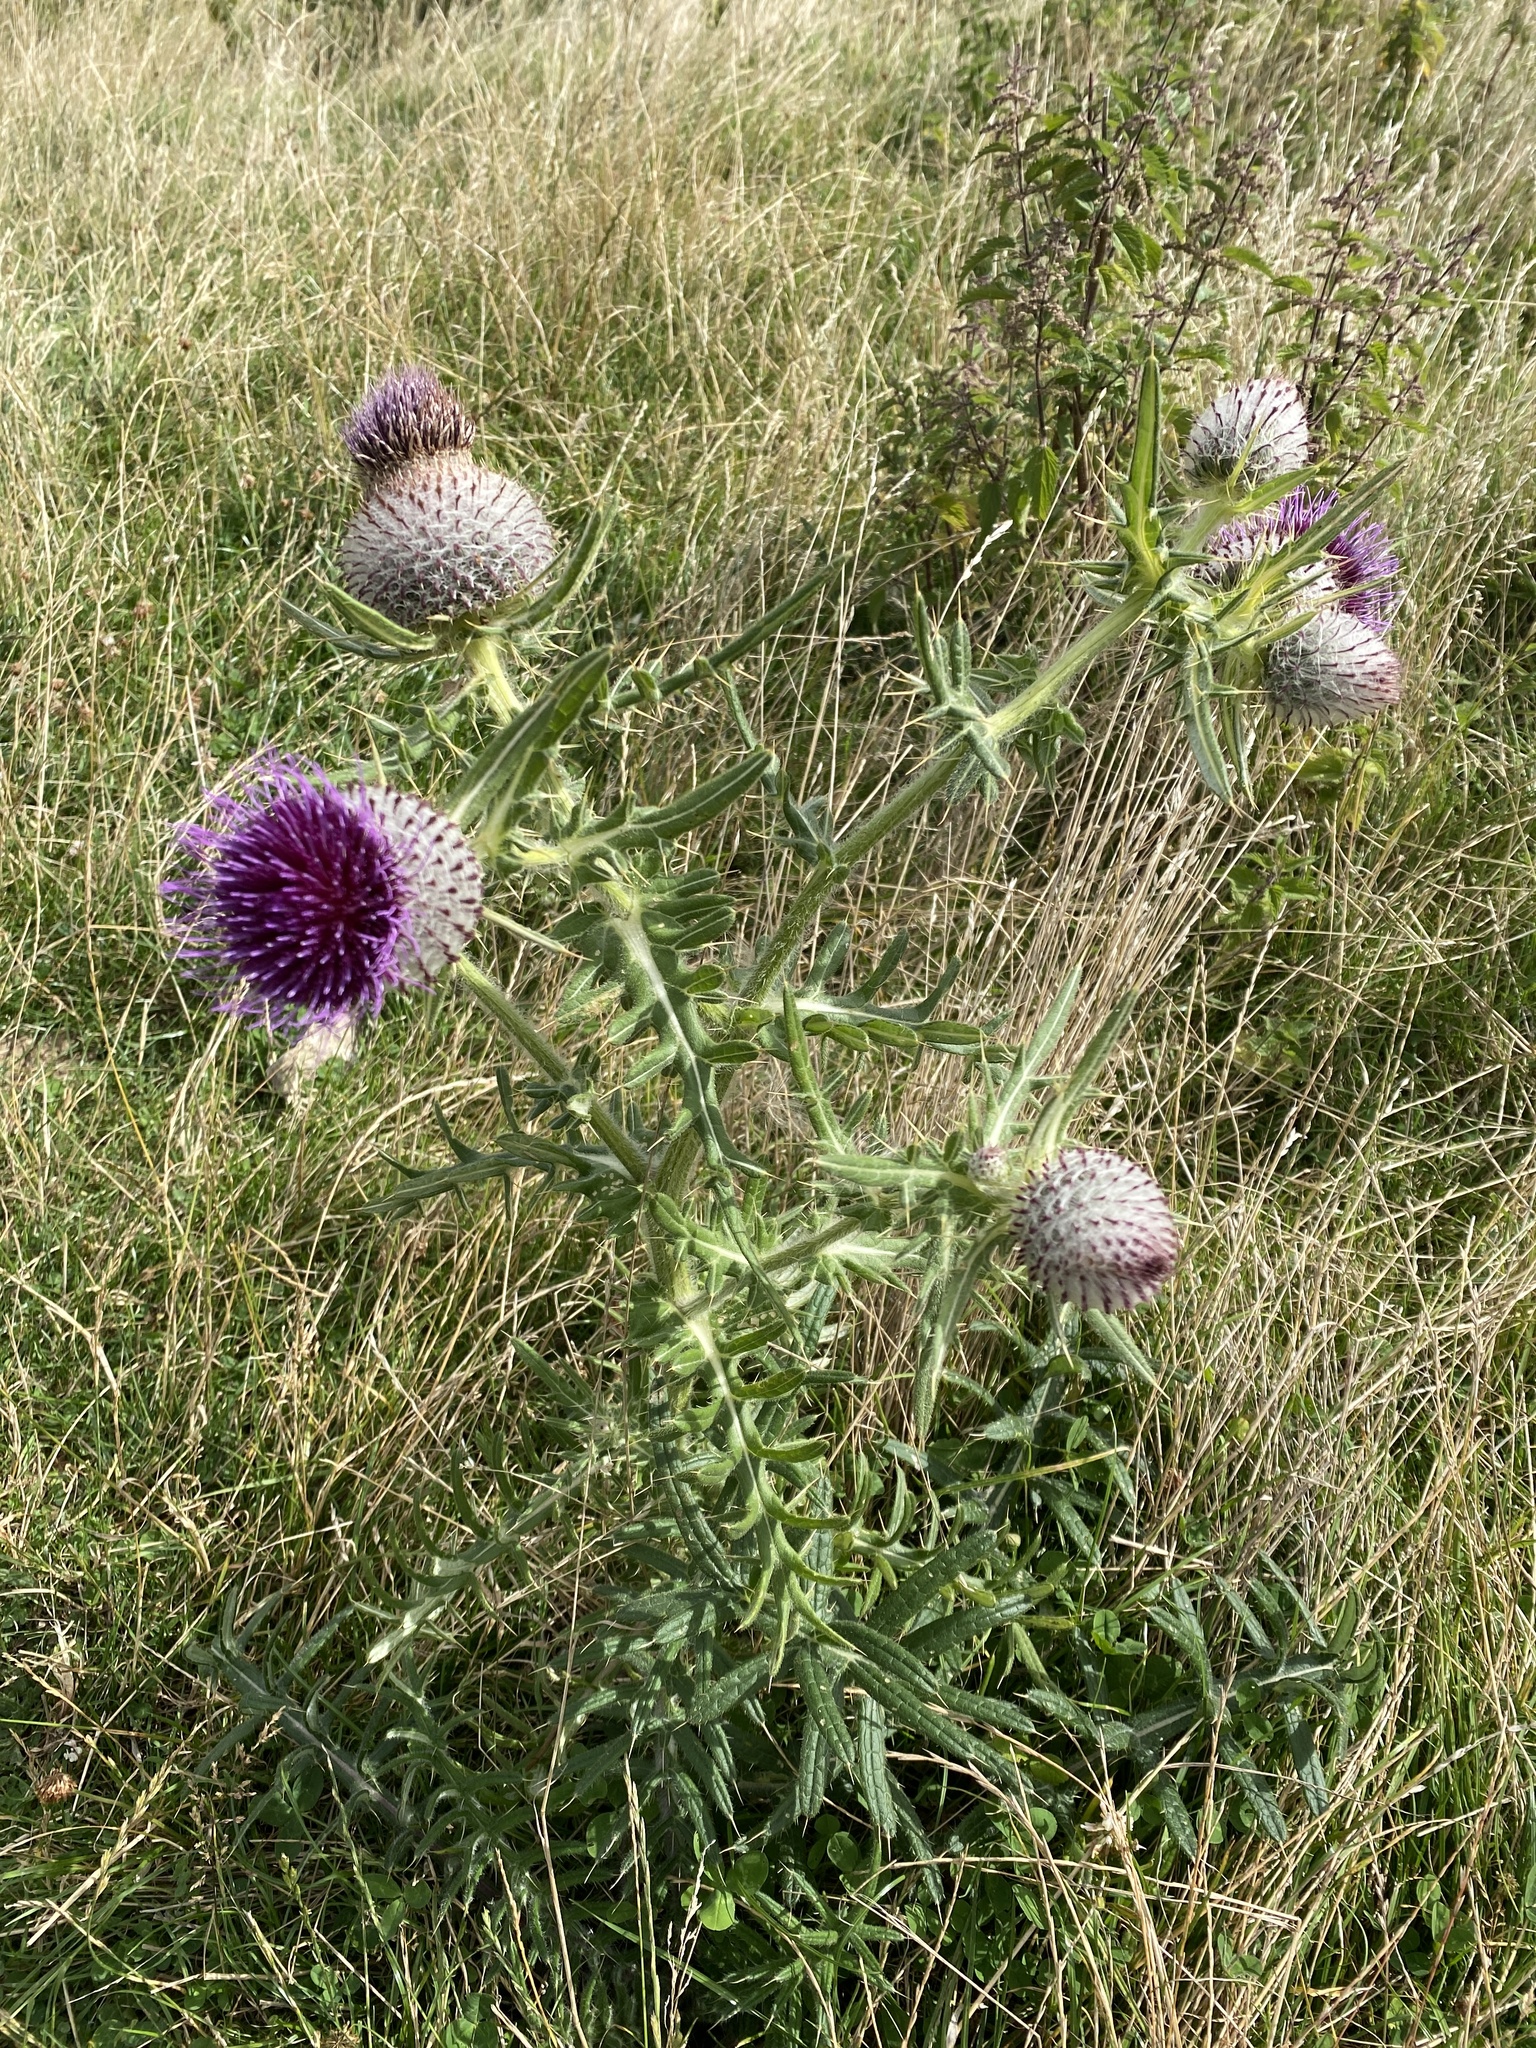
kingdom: Plantae
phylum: Tracheophyta
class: Magnoliopsida
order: Asterales
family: Asteraceae
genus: Lophiolepis
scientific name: Lophiolepis eriophora
